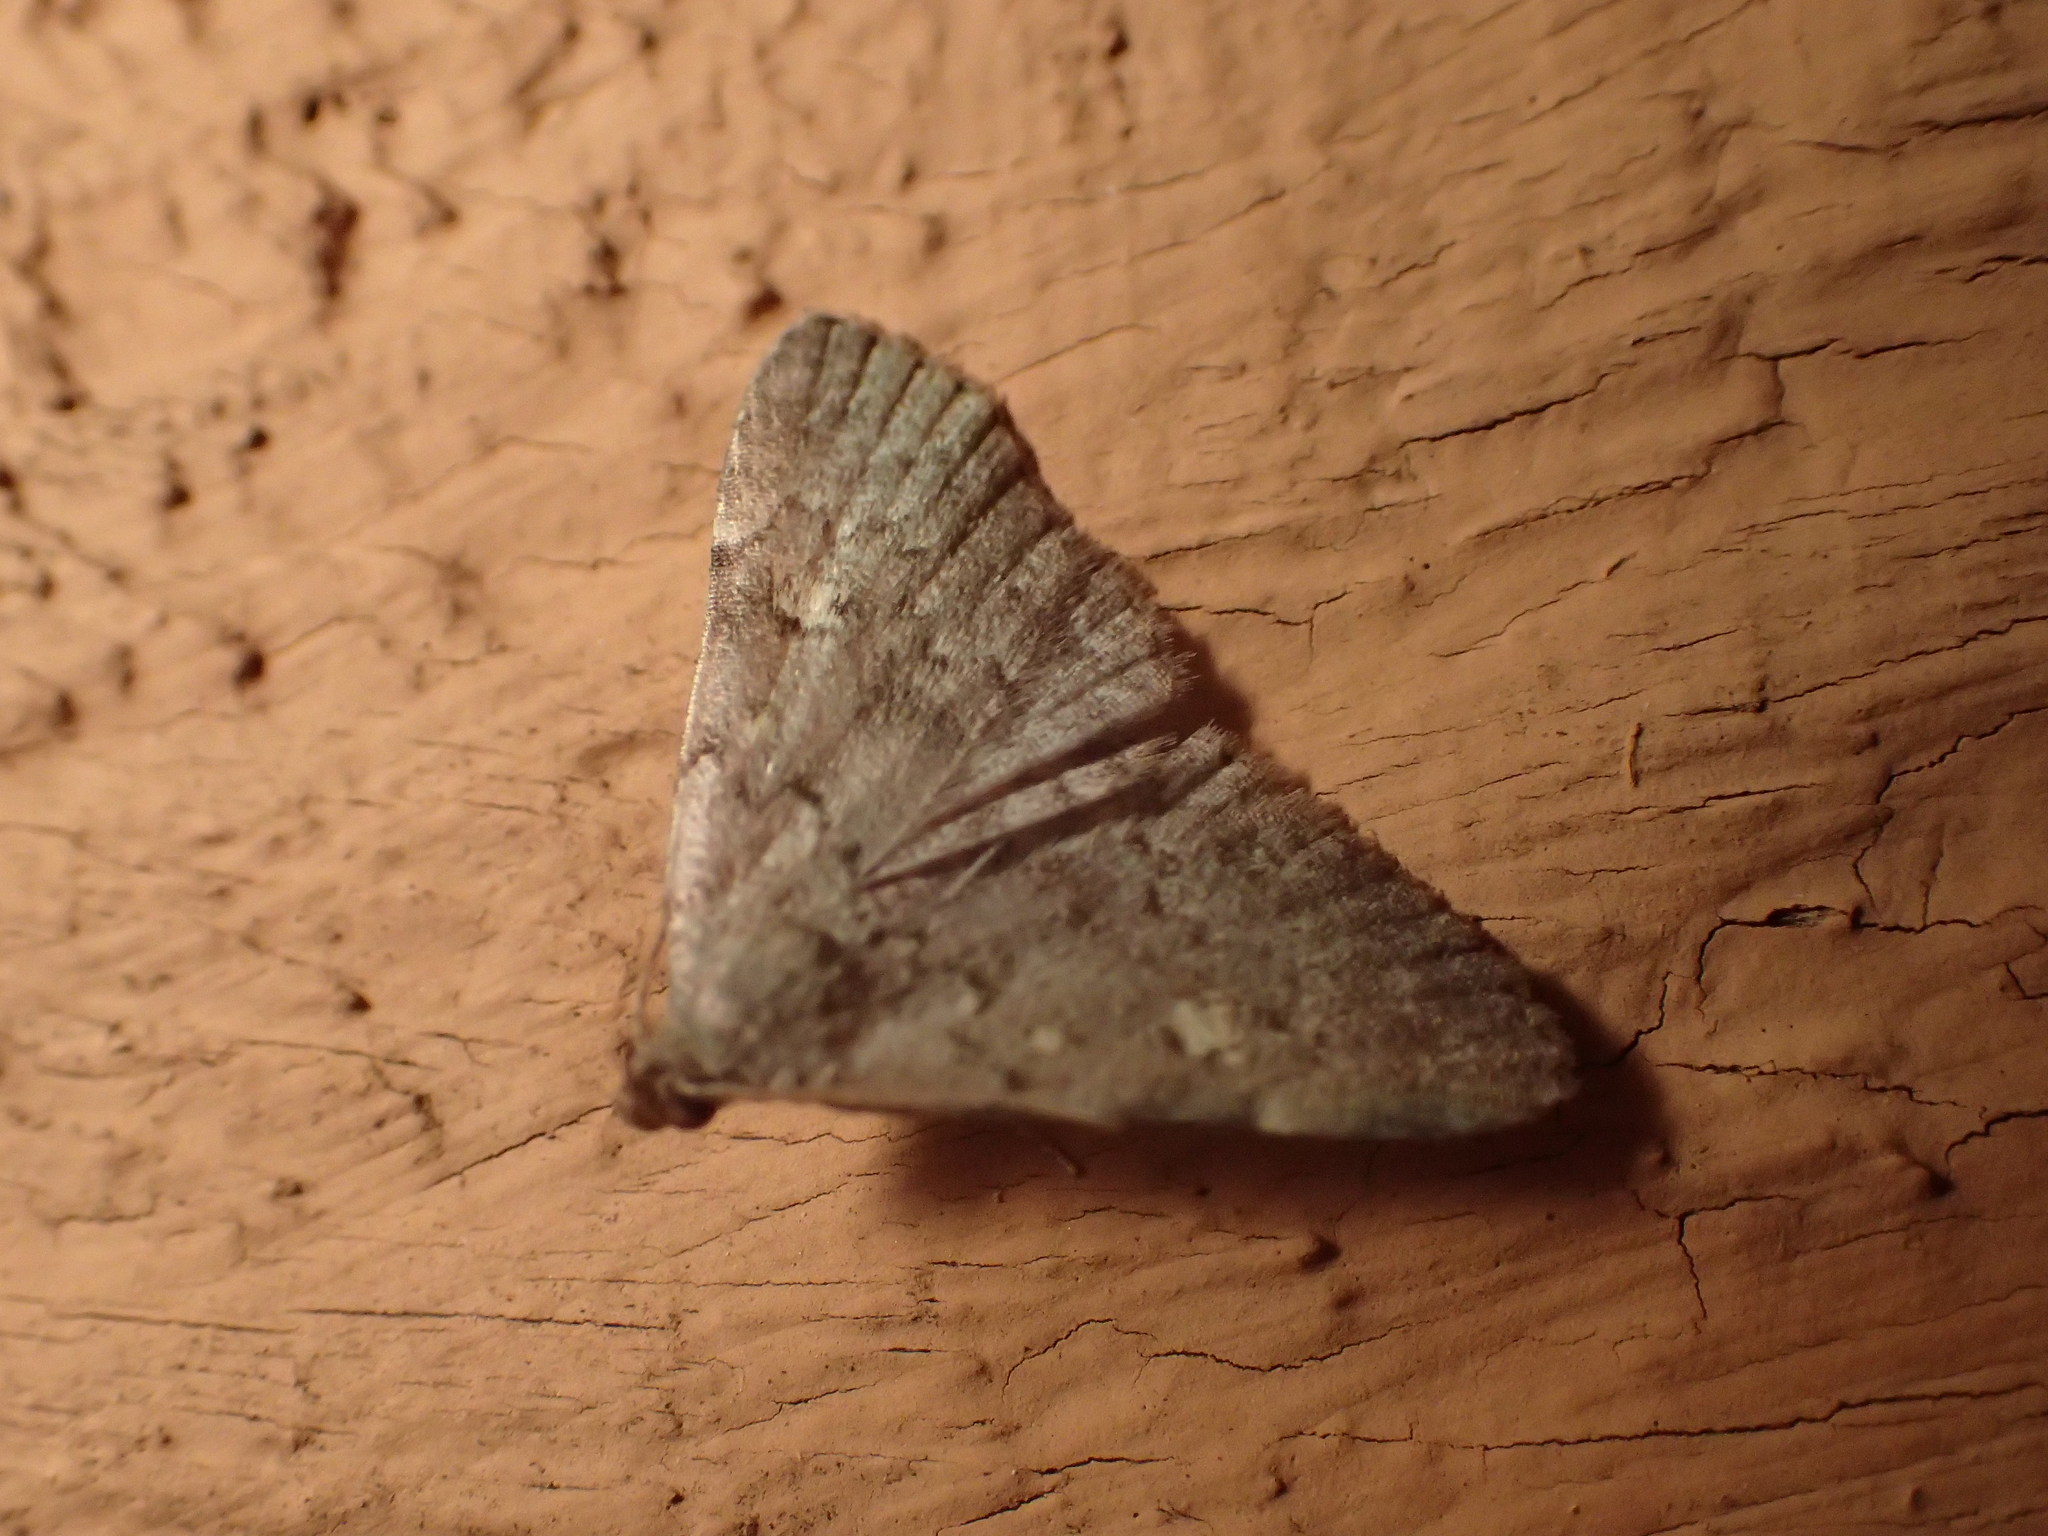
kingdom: Animalia
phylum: Arthropoda
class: Insecta
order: Lepidoptera
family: Erebidae
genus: Idia
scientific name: Idia aemula
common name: Common idia moth
